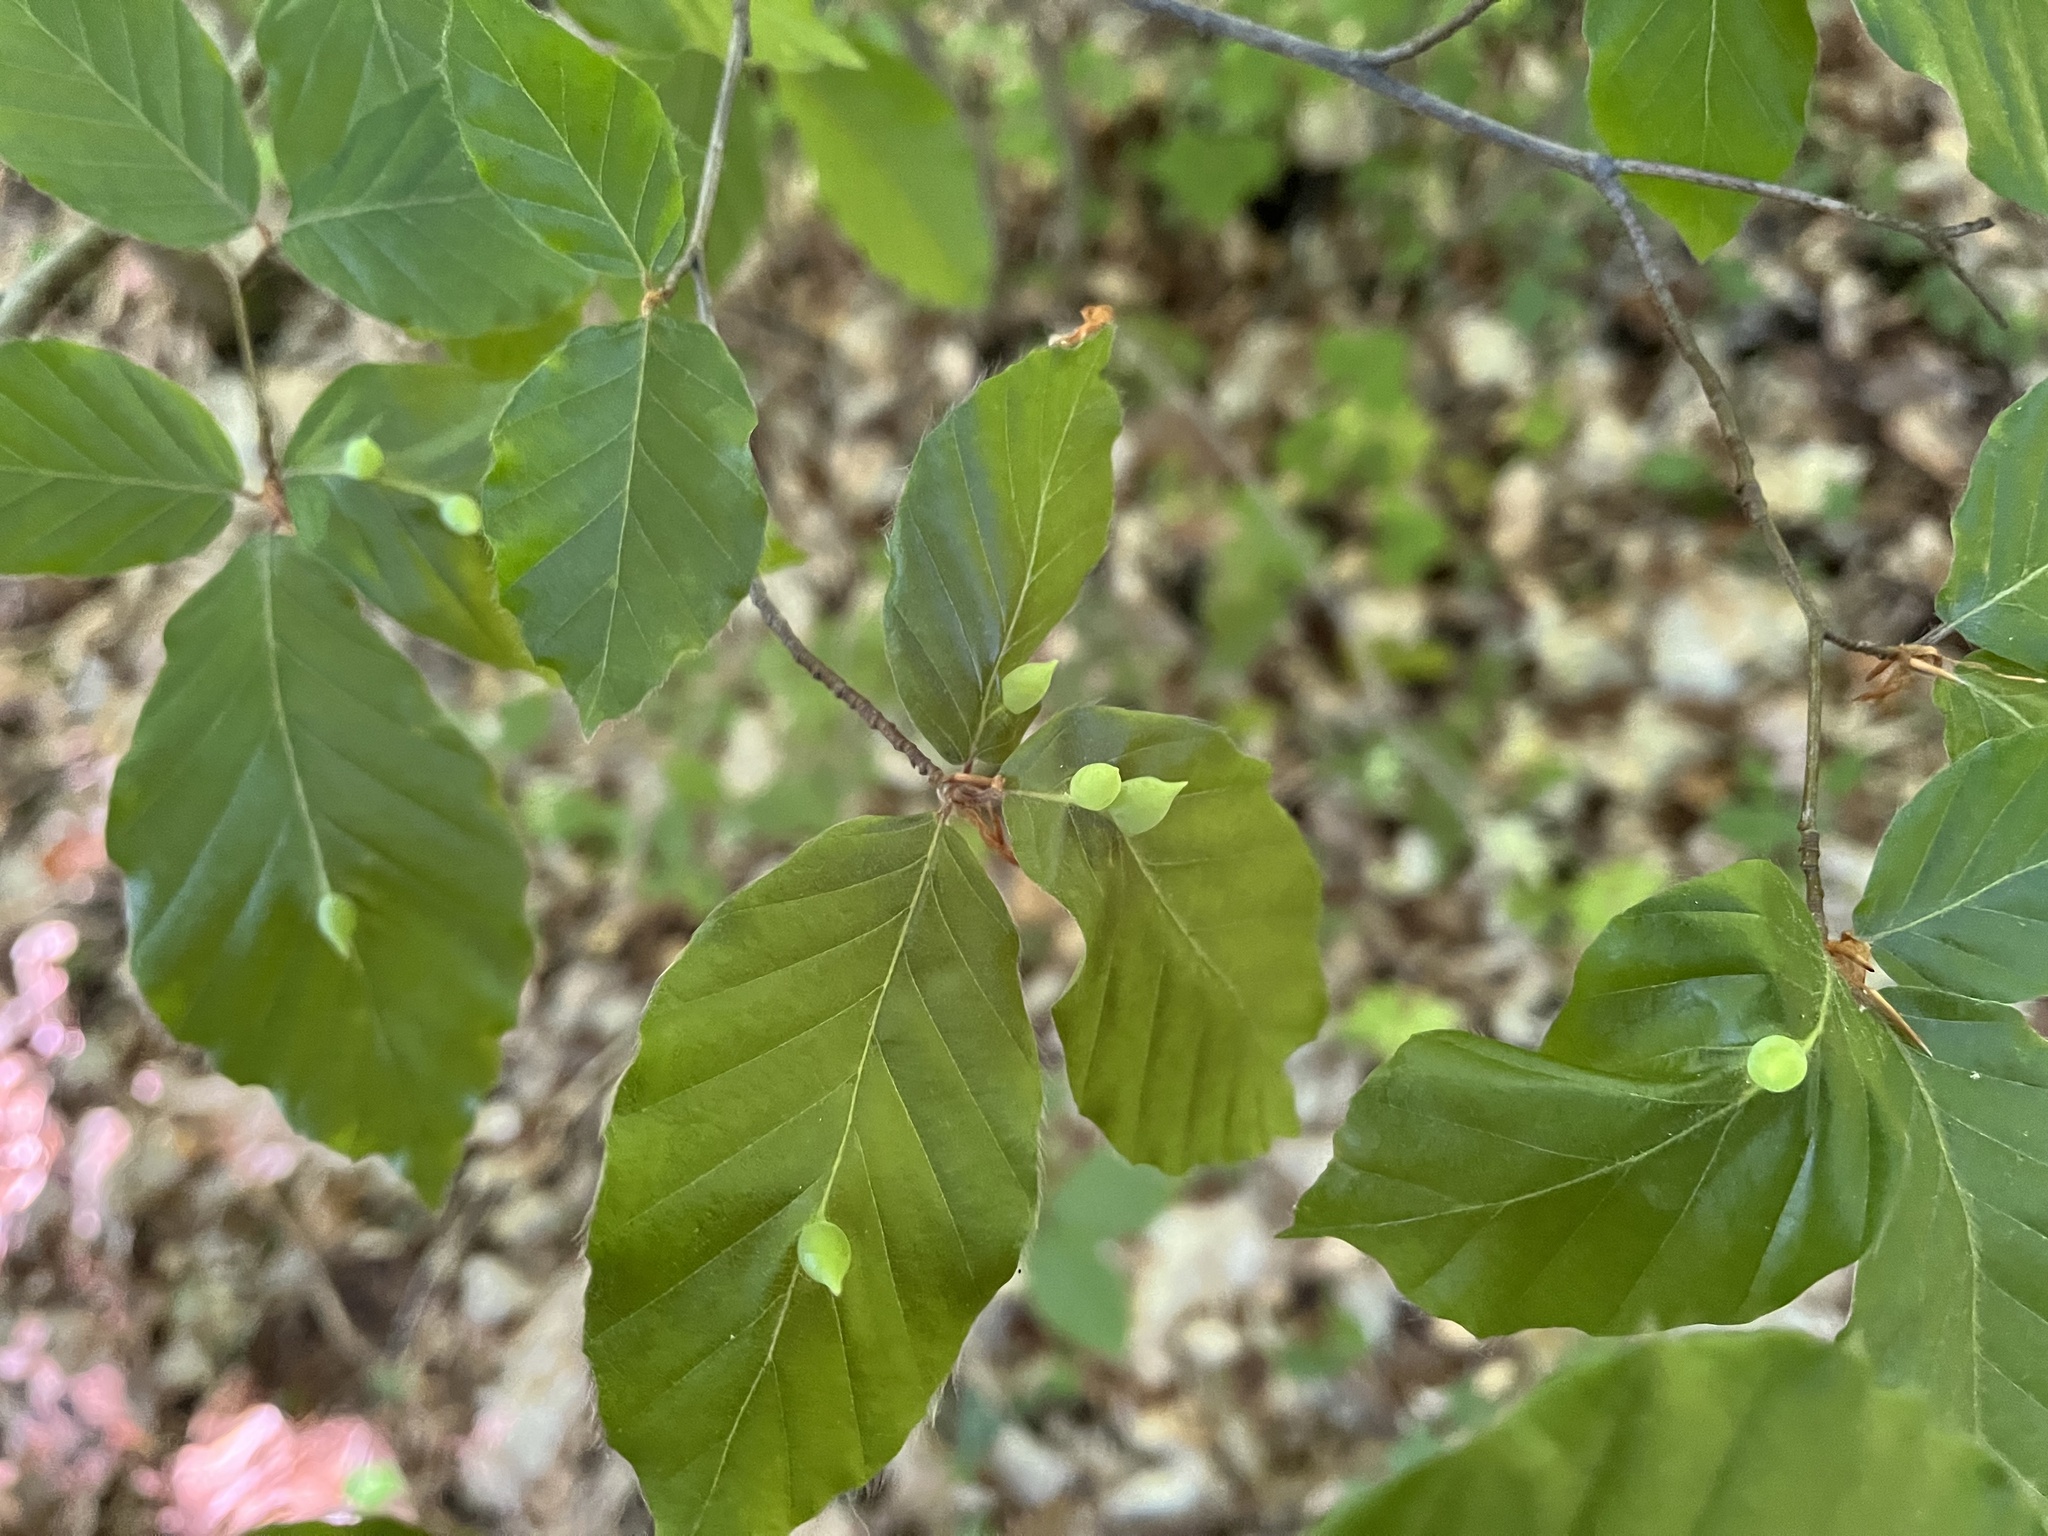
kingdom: Animalia
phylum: Arthropoda
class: Insecta
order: Diptera
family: Cecidomyiidae
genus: Mikiola
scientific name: Mikiola fagi
